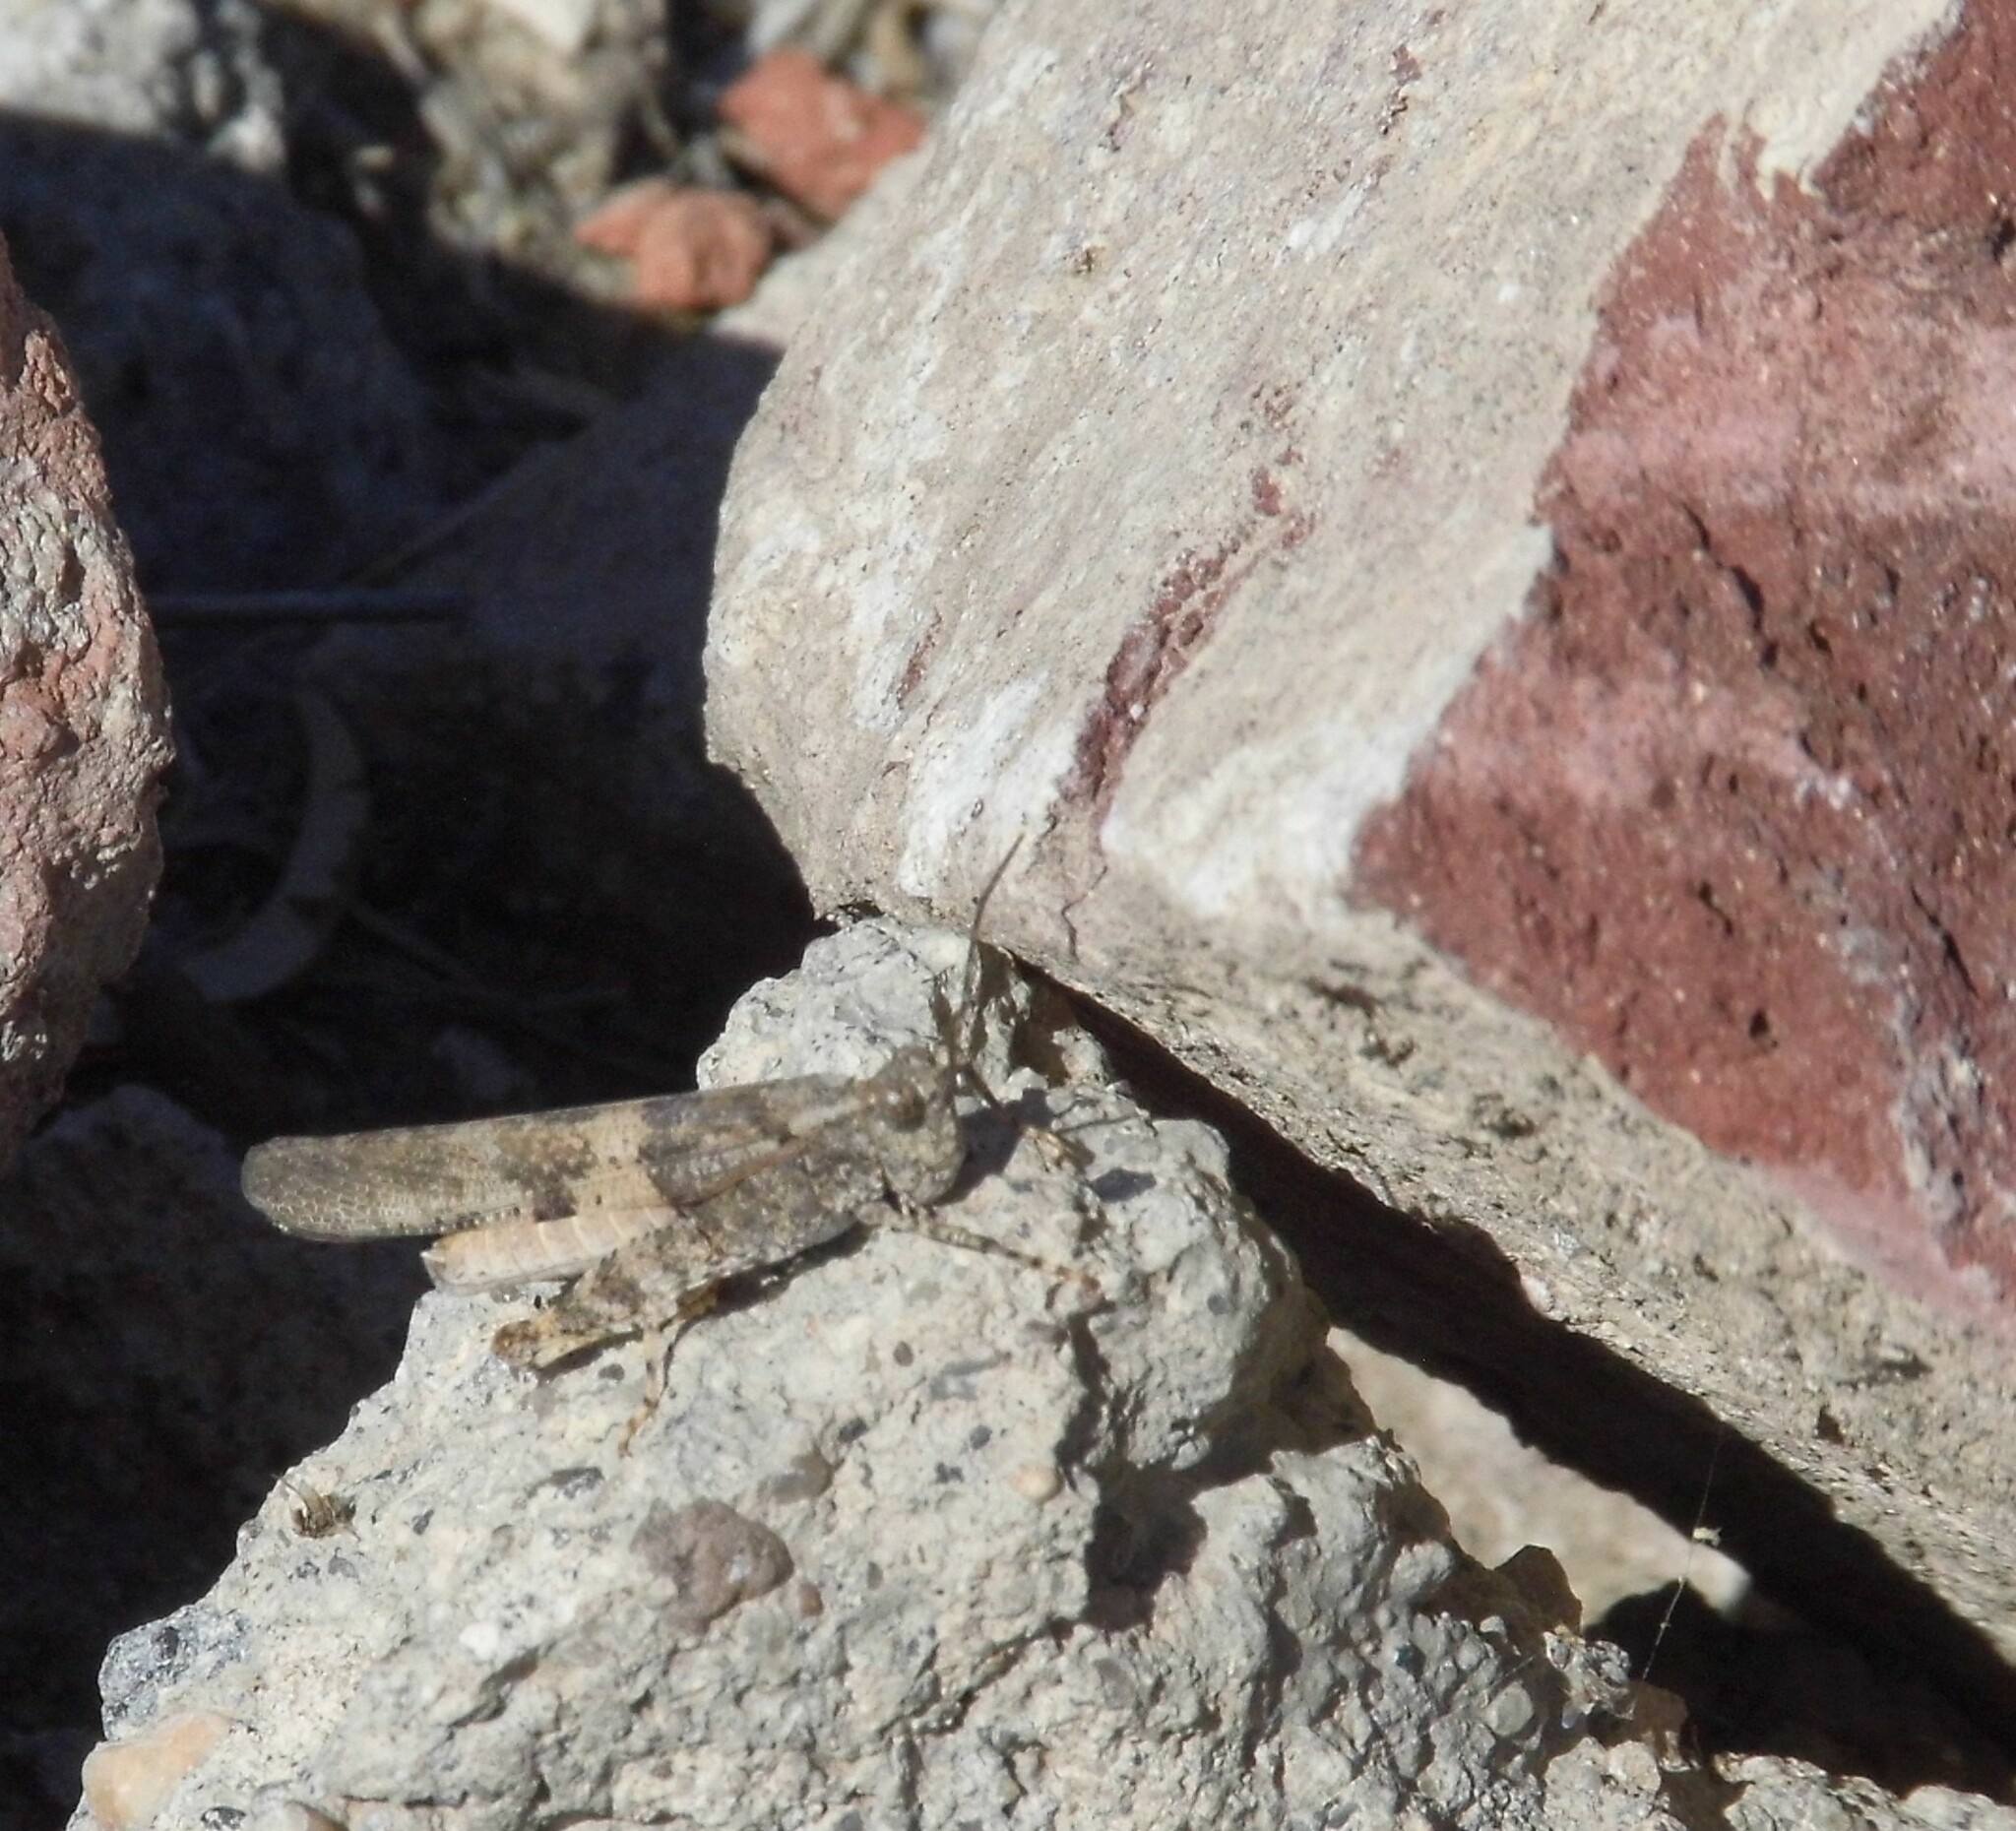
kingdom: Animalia
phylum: Arthropoda
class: Insecta
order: Orthoptera
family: Acrididae
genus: Trimerotropis
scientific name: Trimerotropis pallidipennis
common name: Pallid-winged grasshopper
